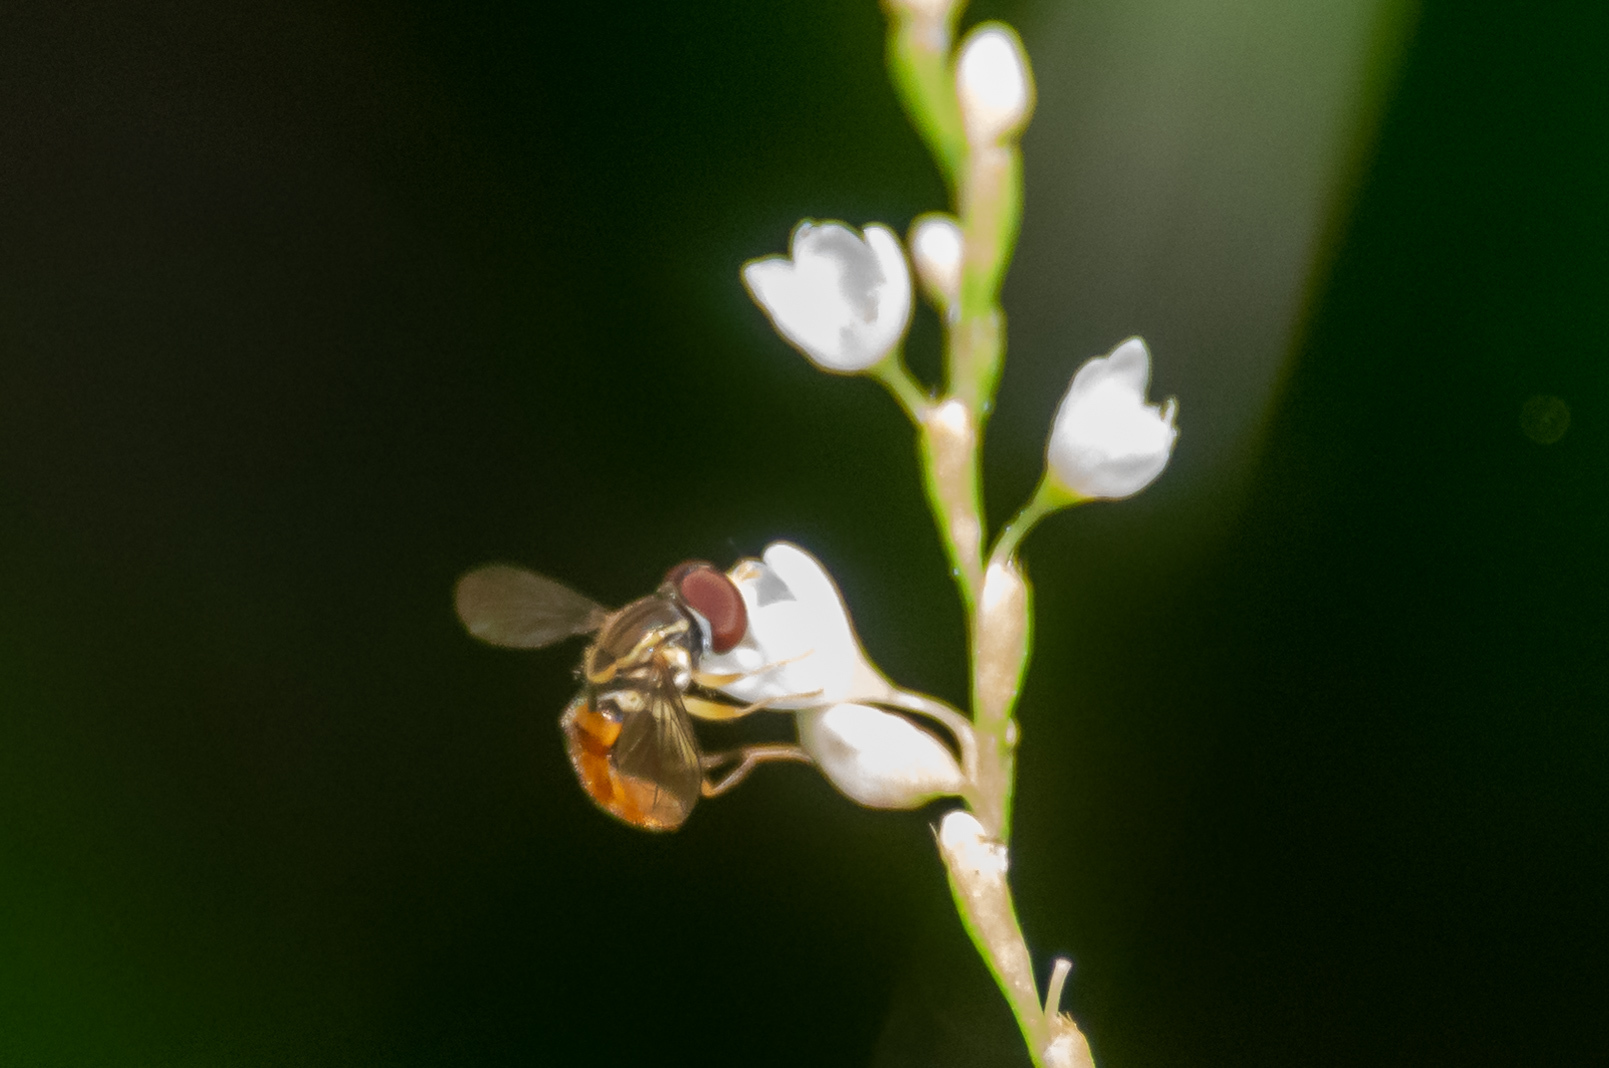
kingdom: Animalia
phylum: Arthropoda
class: Insecta
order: Diptera
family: Syrphidae
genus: Toxomerus
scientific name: Toxomerus boscii
